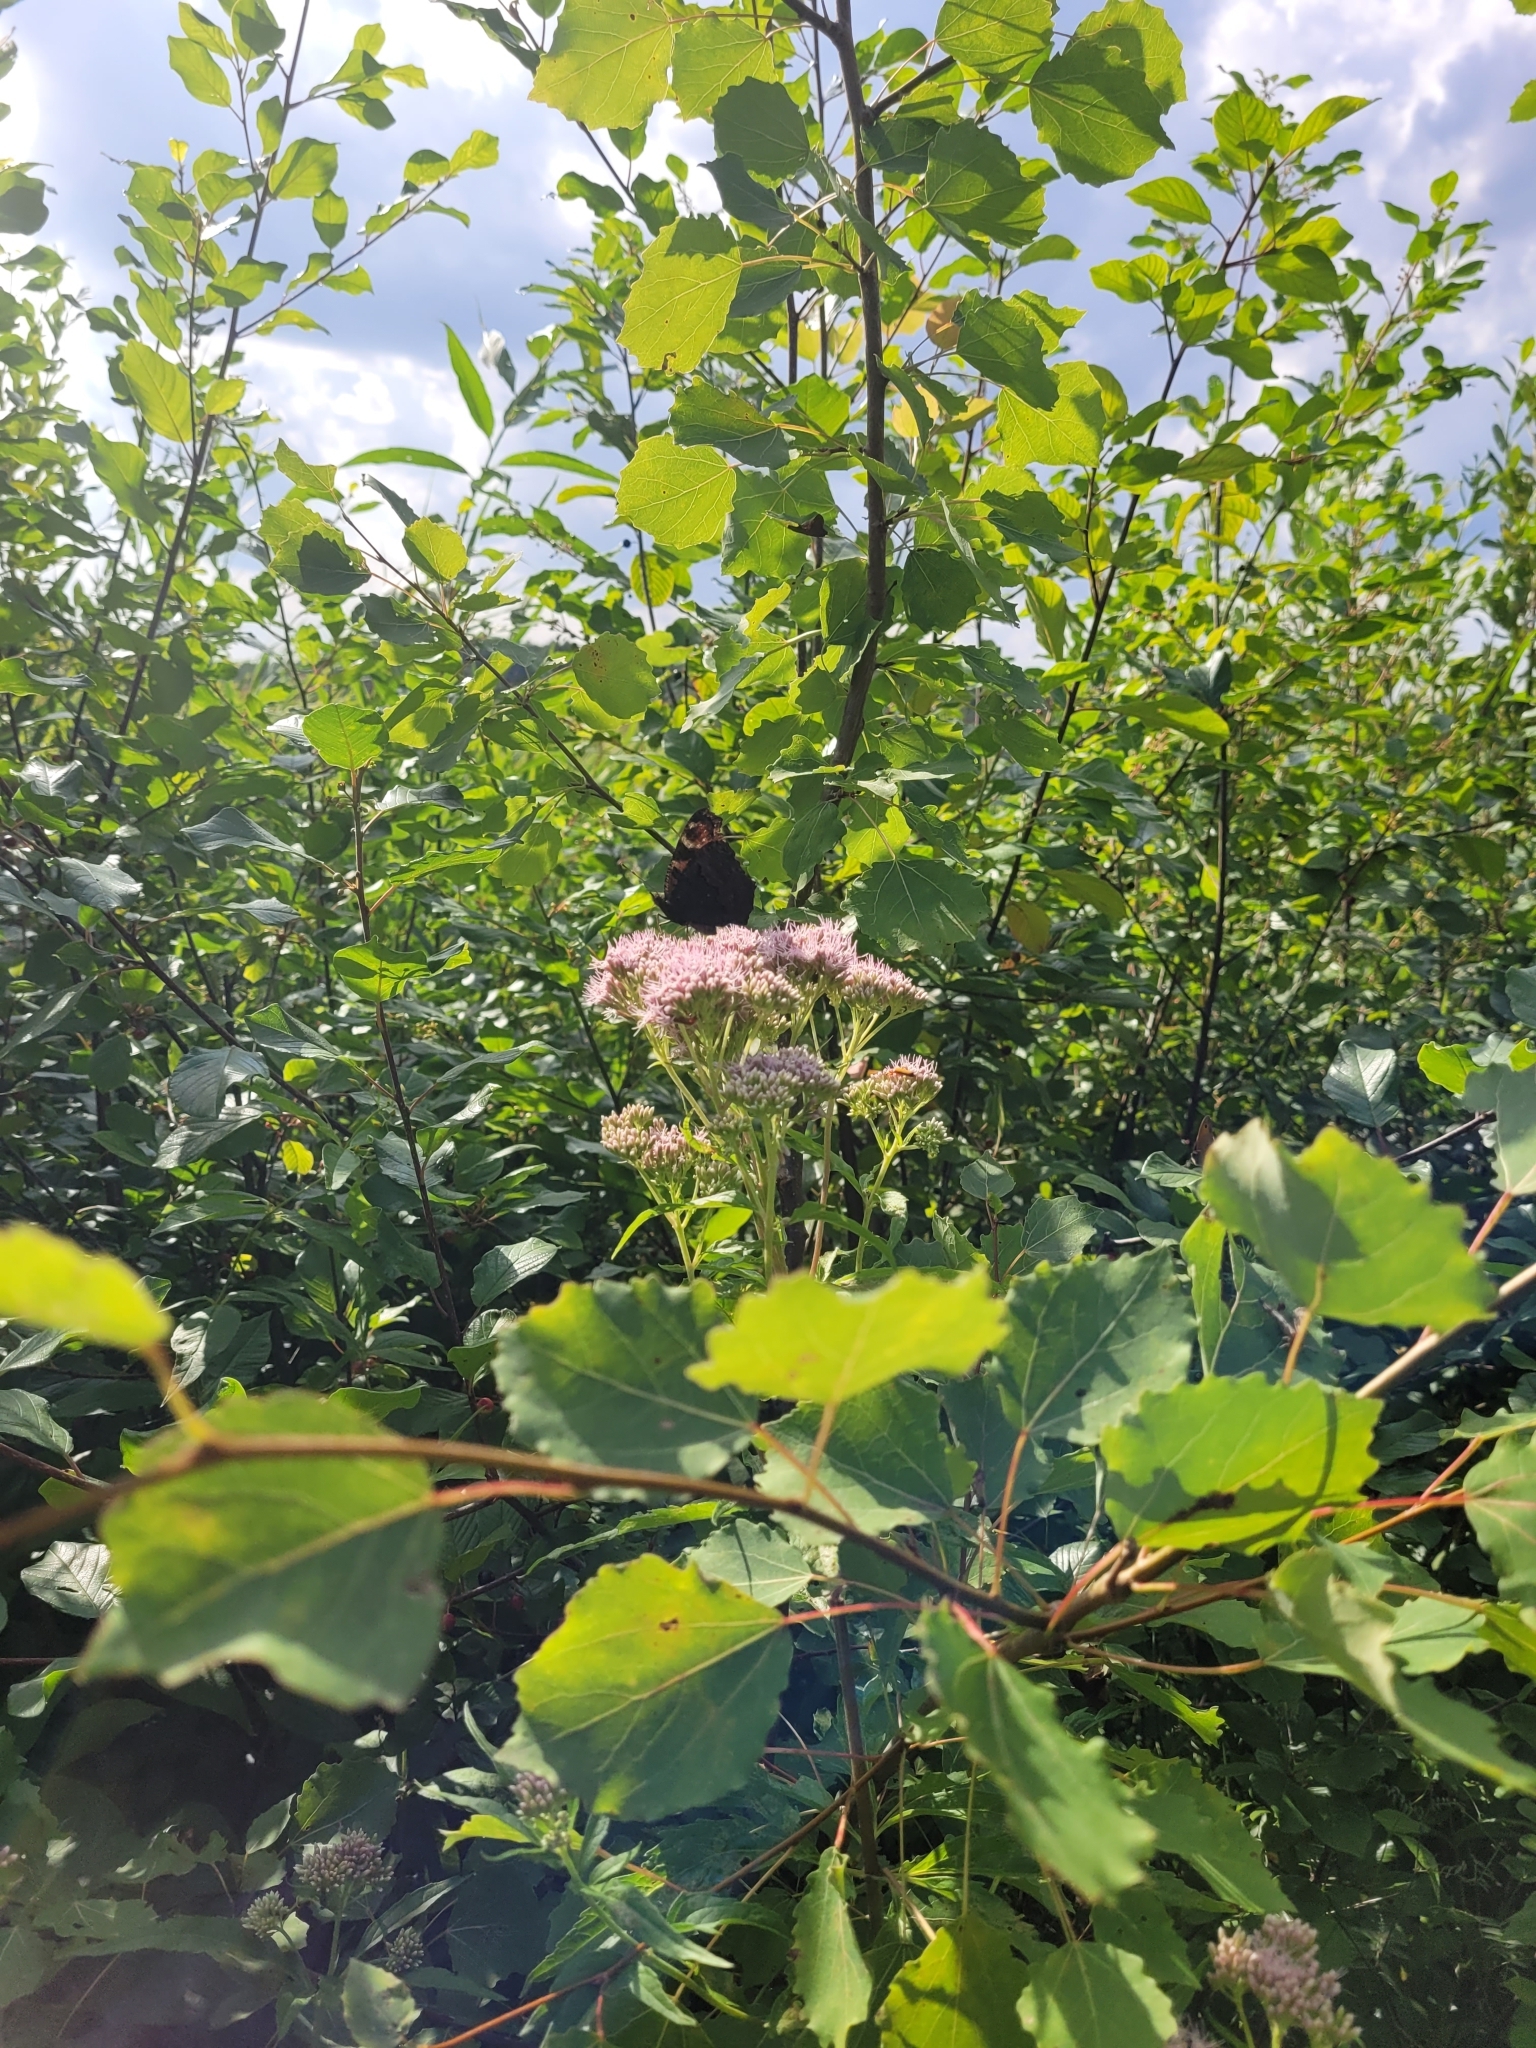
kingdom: Animalia
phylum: Arthropoda
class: Insecta
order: Lepidoptera
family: Nymphalidae
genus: Aglais
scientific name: Aglais io
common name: Peacock
